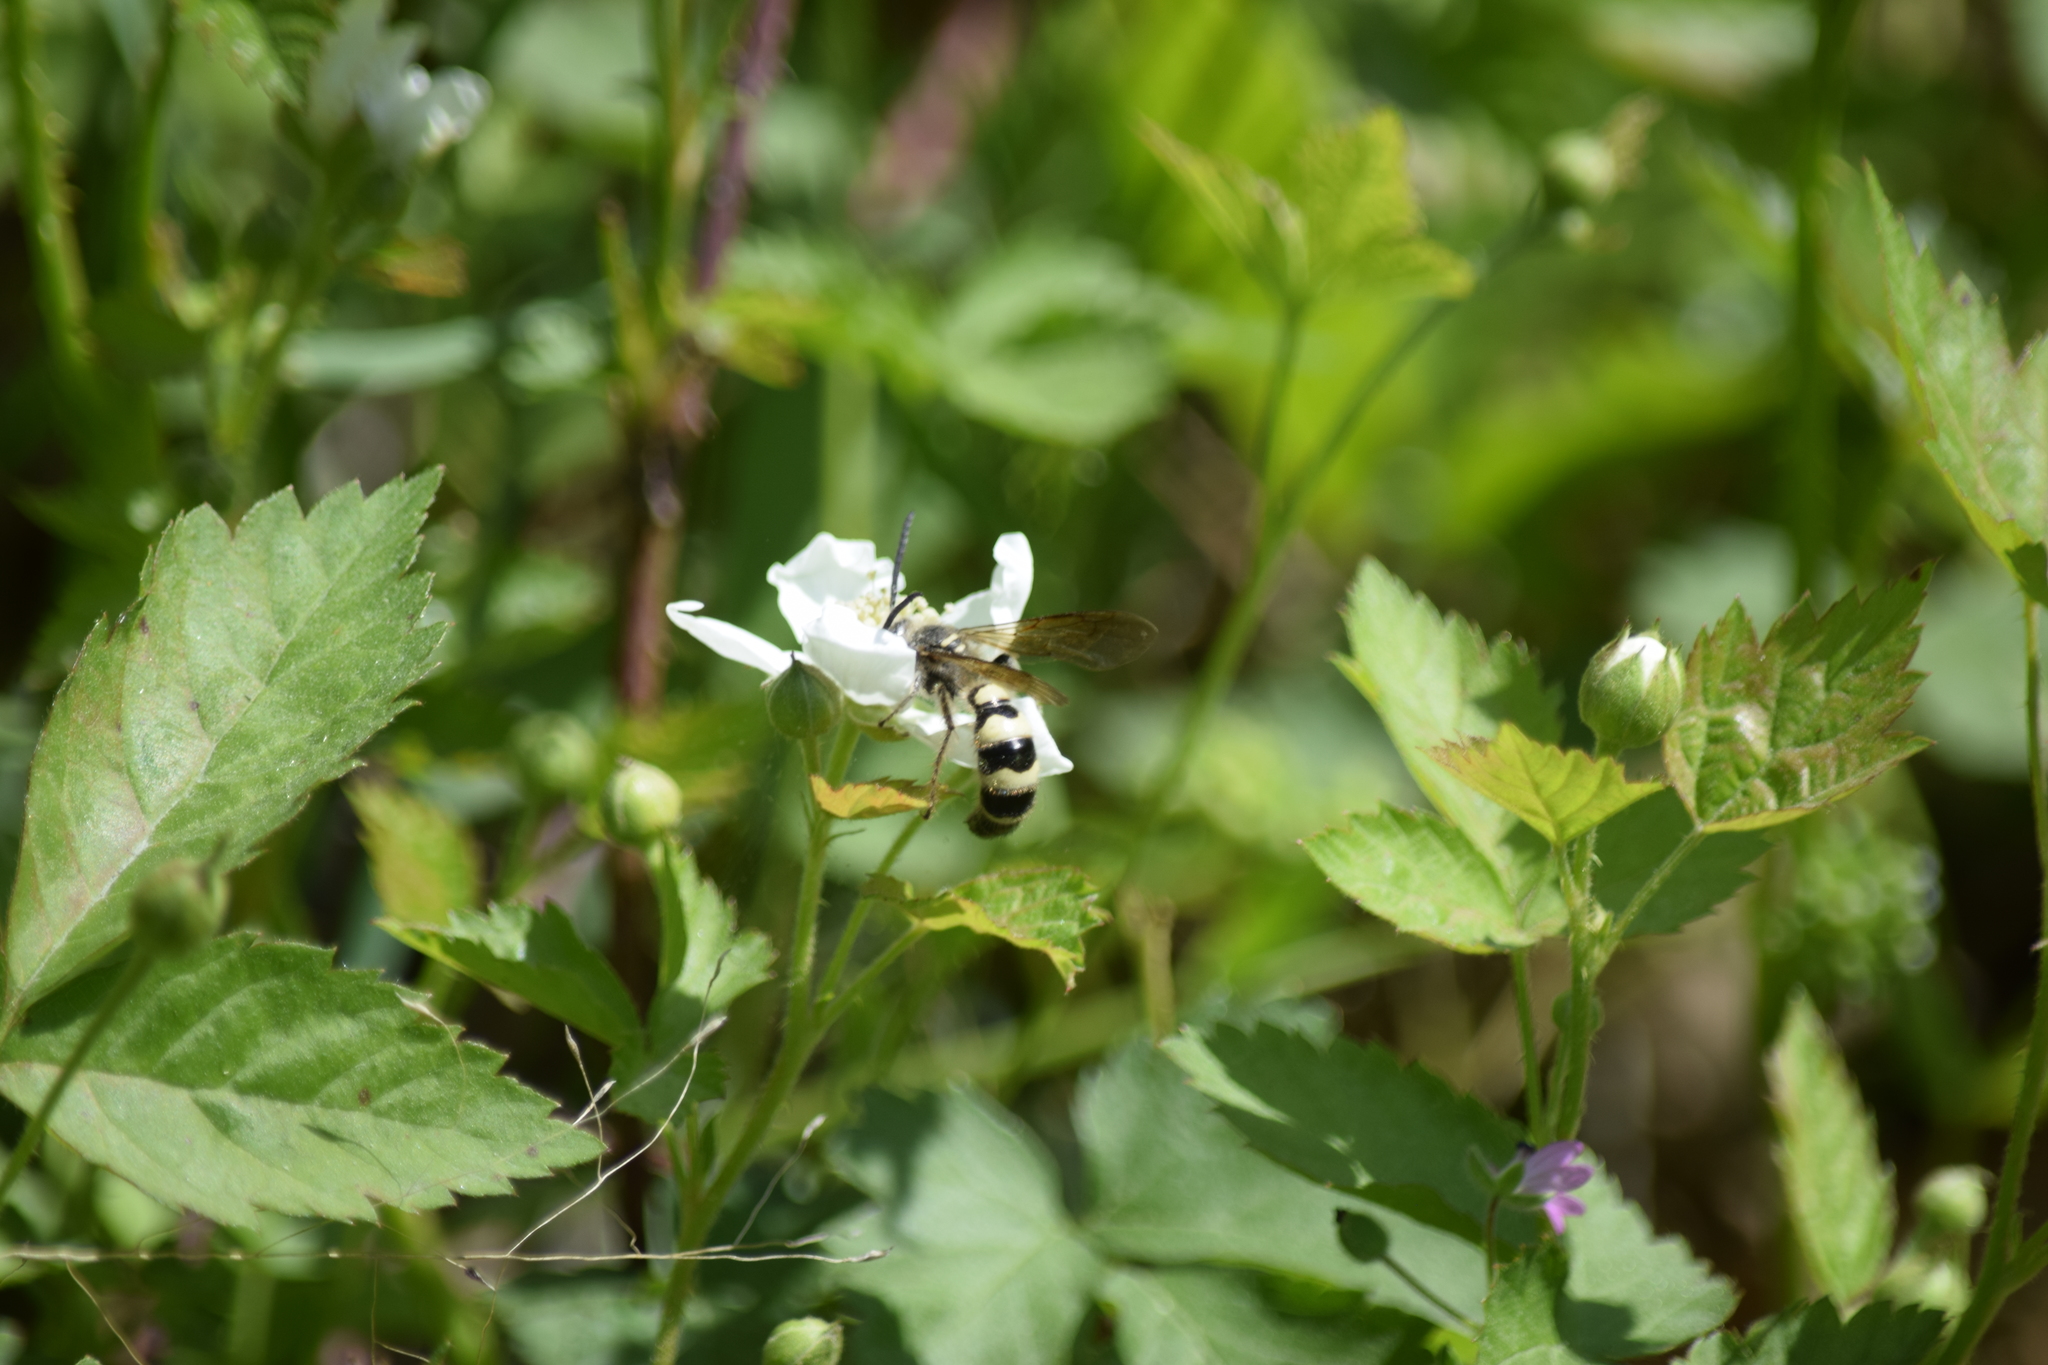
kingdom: Animalia
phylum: Arthropoda
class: Insecta
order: Hymenoptera
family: Scoliidae
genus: Dielis
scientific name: Dielis
